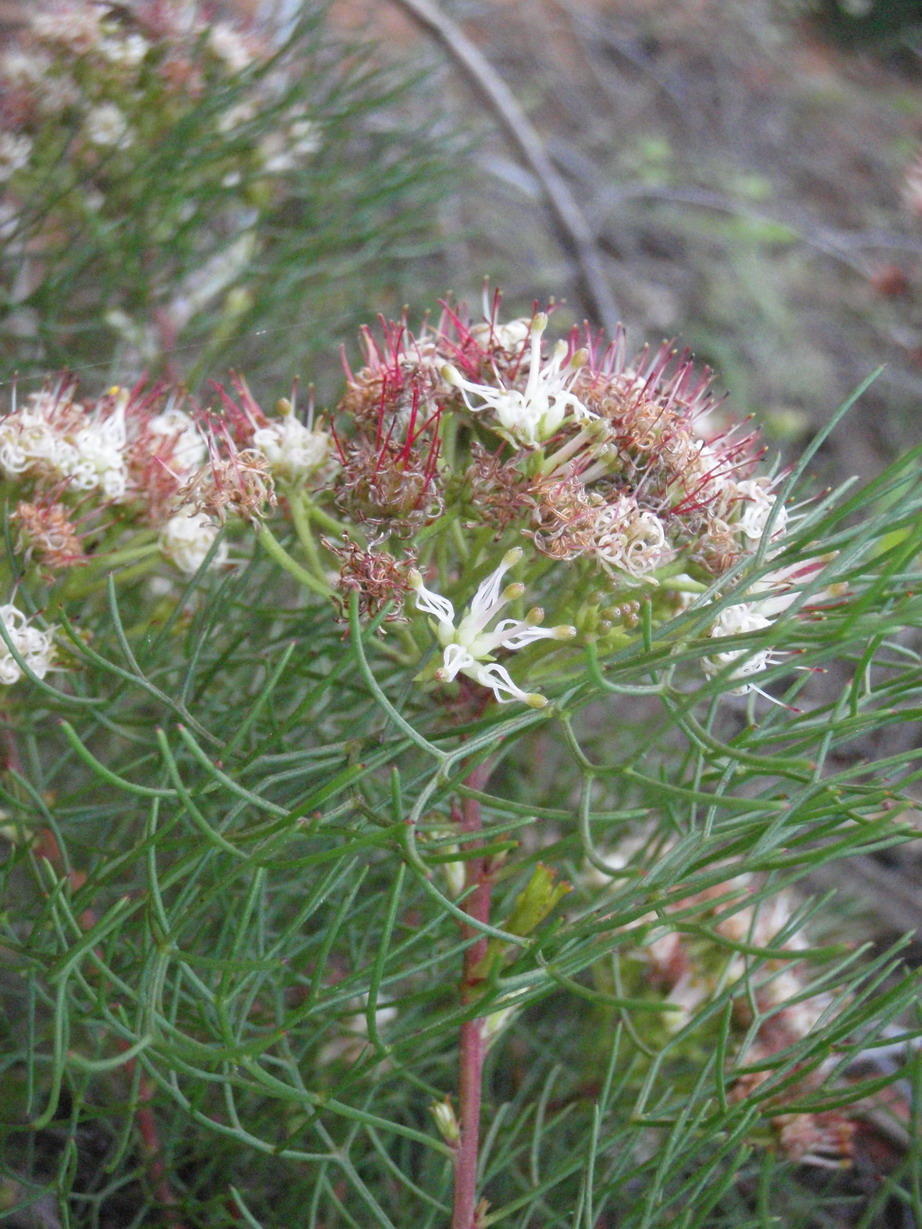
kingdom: Plantae
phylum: Tracheophyta
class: Magnoliopsida
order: Proteales
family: Proteaceae
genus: Serruria
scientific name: Serruria fasciflora
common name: Common pin spiderhead
